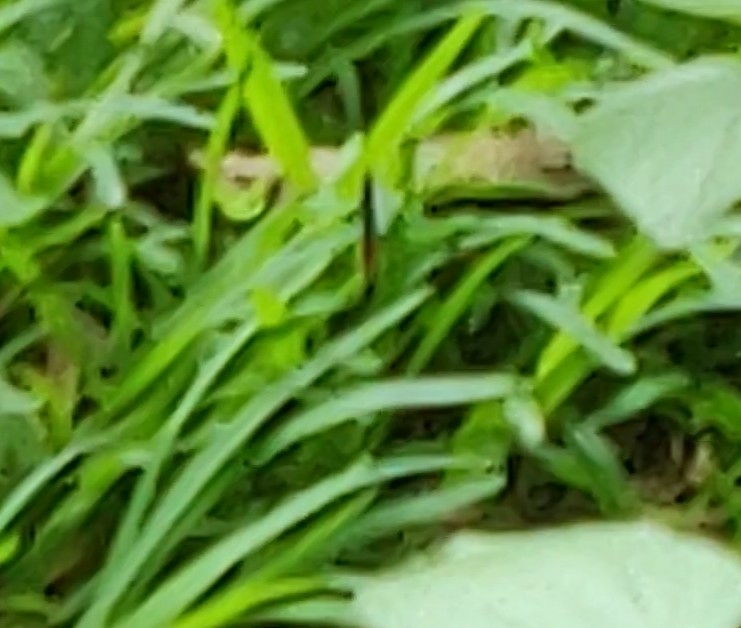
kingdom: Animalia
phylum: Arthropoda
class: Insecta
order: Lepidoptera
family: Lycaenidae
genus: Talicada
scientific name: Talicada nyseus
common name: Red pierrot
